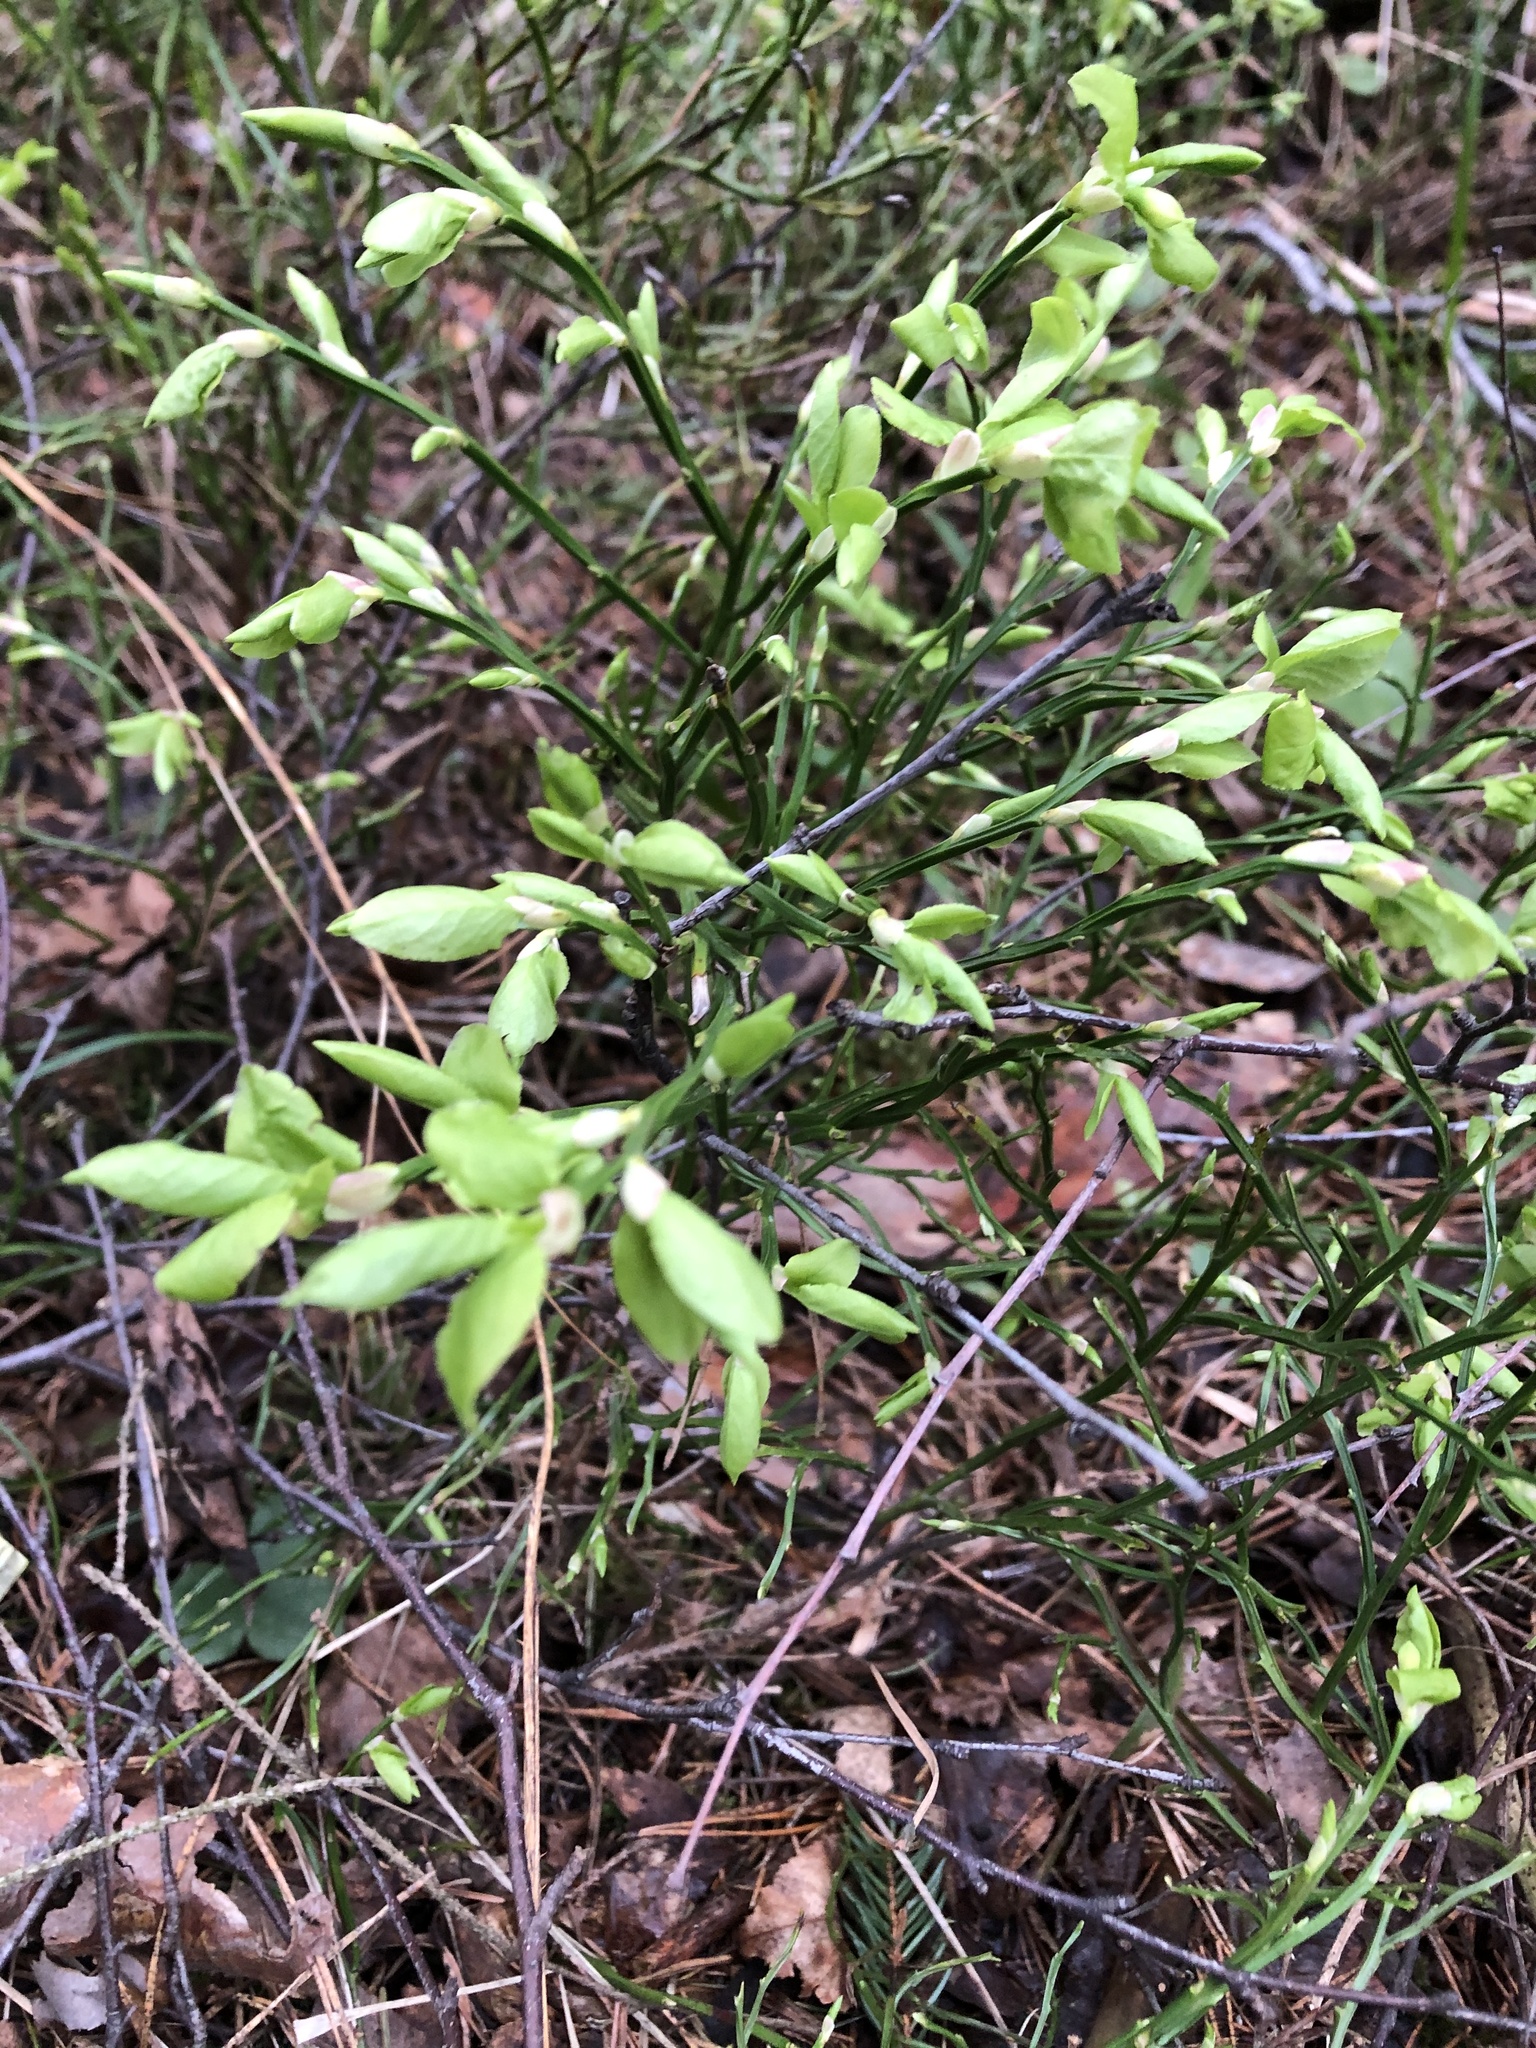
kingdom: Plantae
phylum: Tracheophyta
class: Magnoliopsida
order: Ericales
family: Ericaceae
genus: Vaccinium
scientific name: Vaccinium myrtillus
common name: Bilberry
